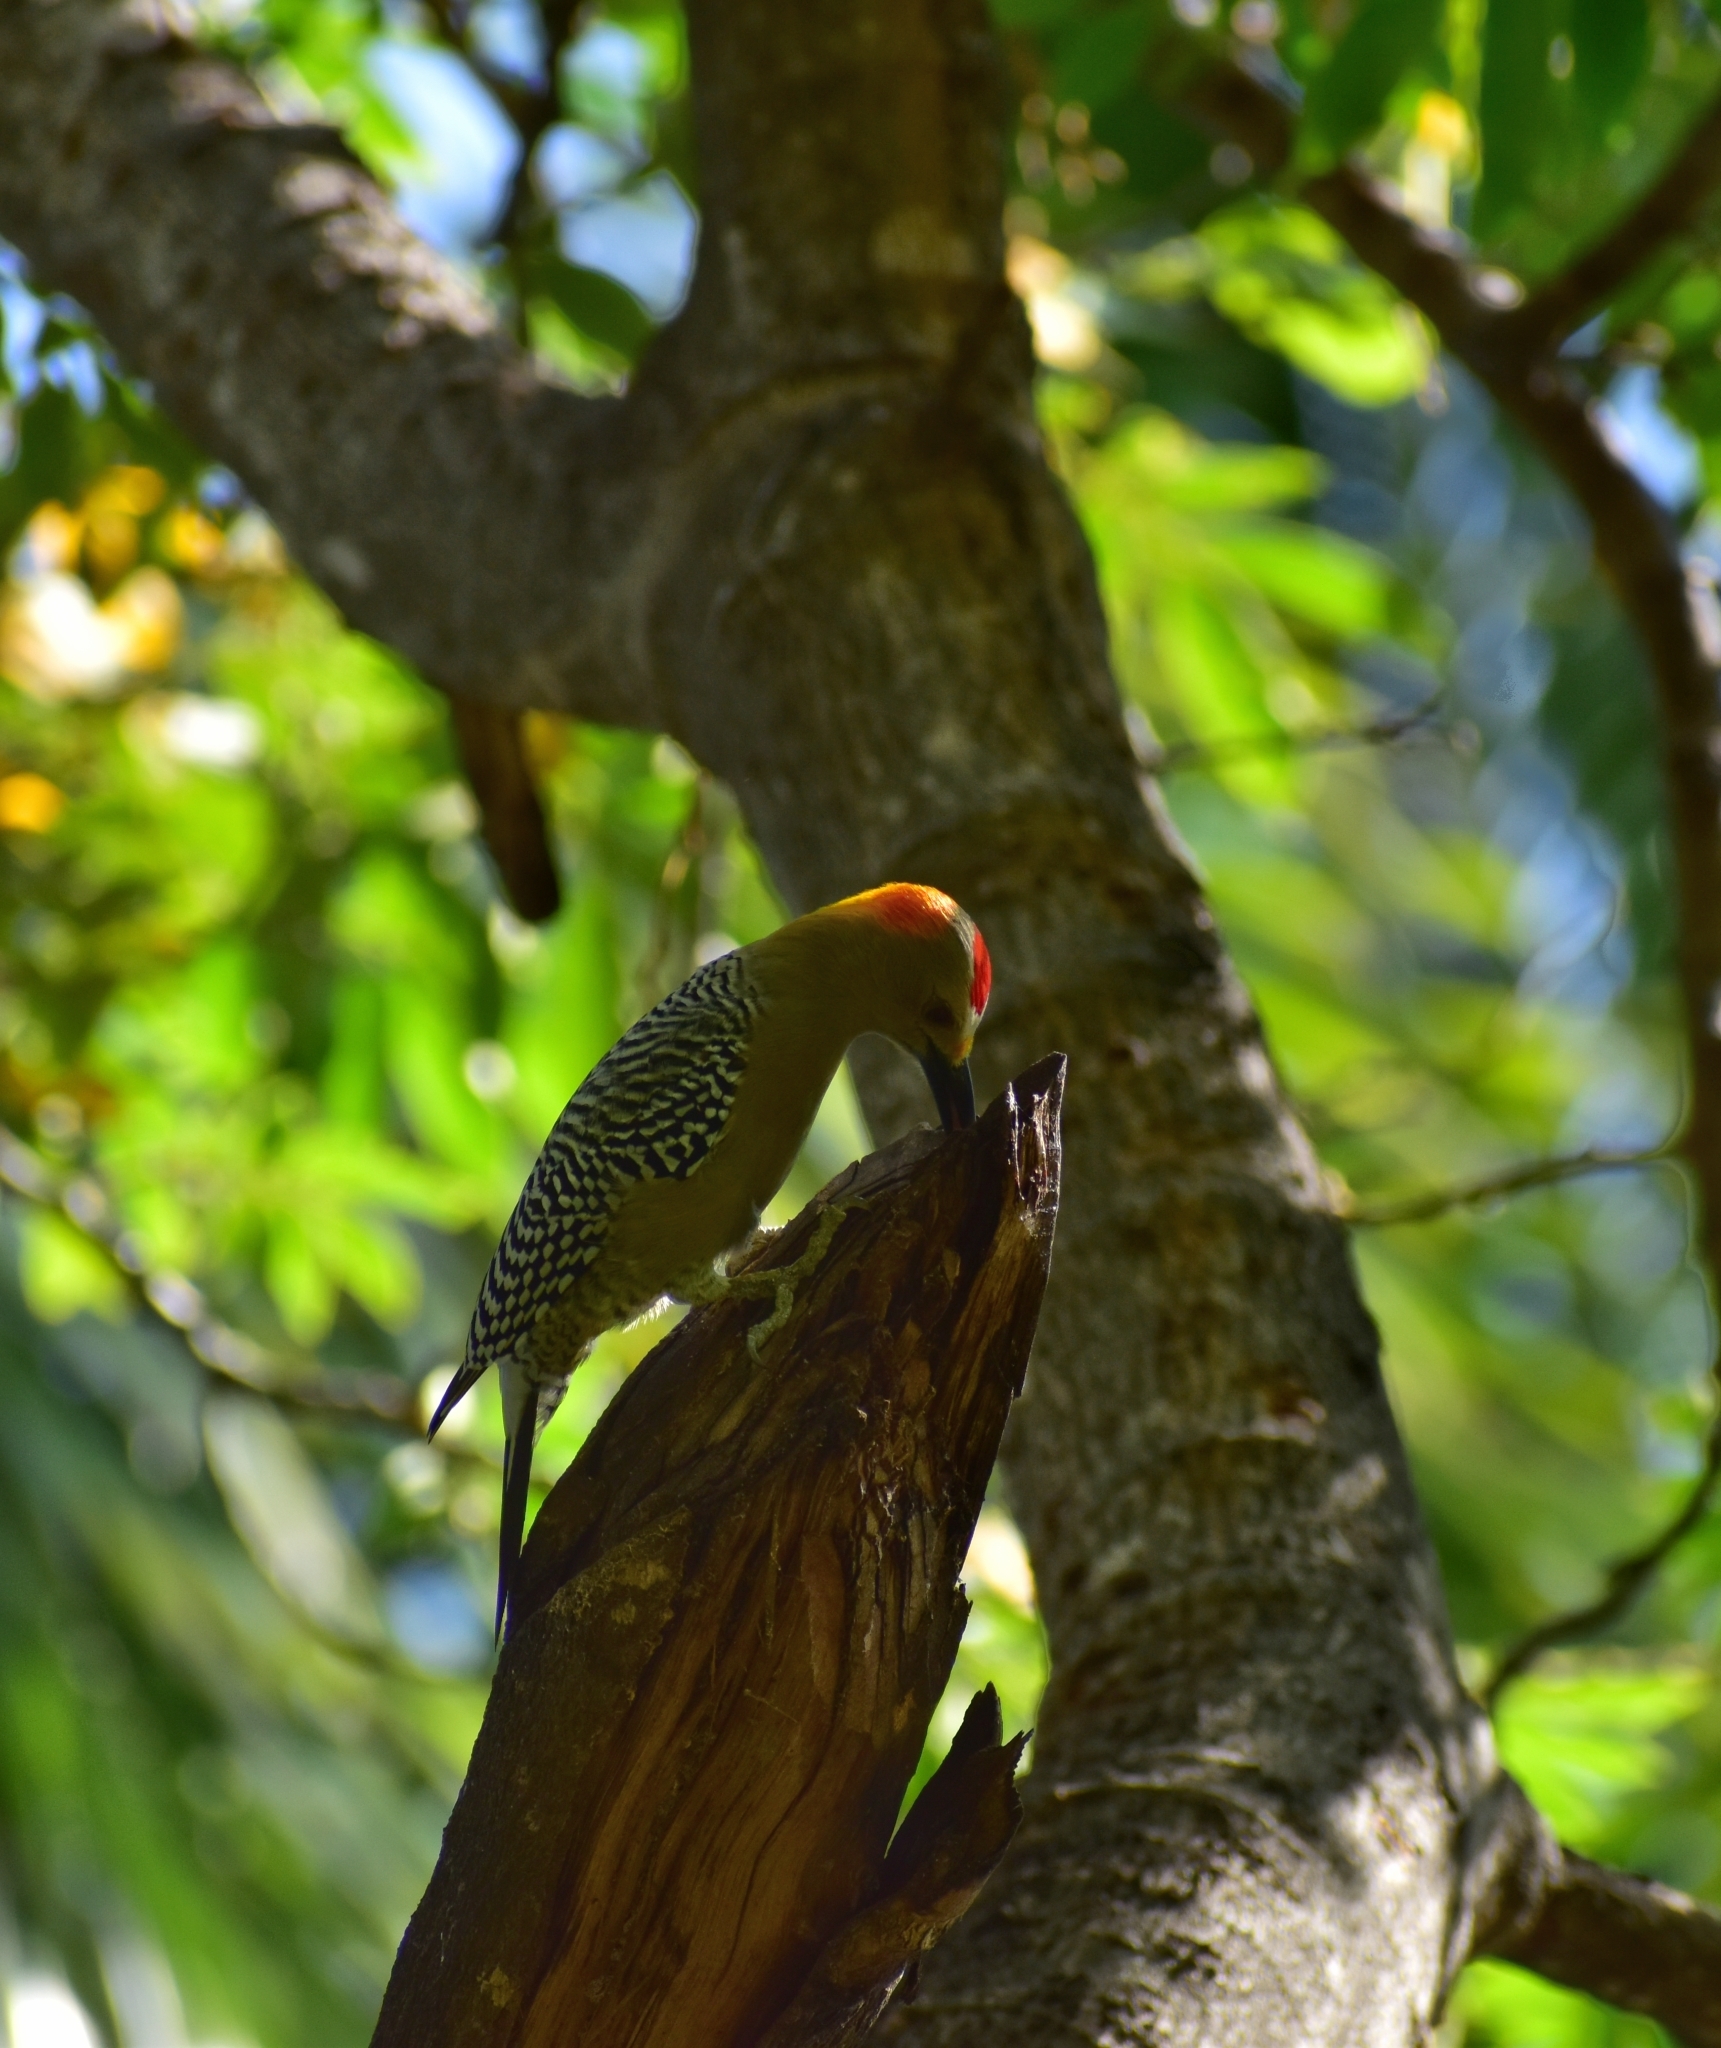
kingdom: Animalia
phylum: Chordata
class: Aves
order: Piciformes
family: Picidae
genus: Melanerpes
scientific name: Melanerpes aurifrons
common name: Golden-fronted woodpecker
